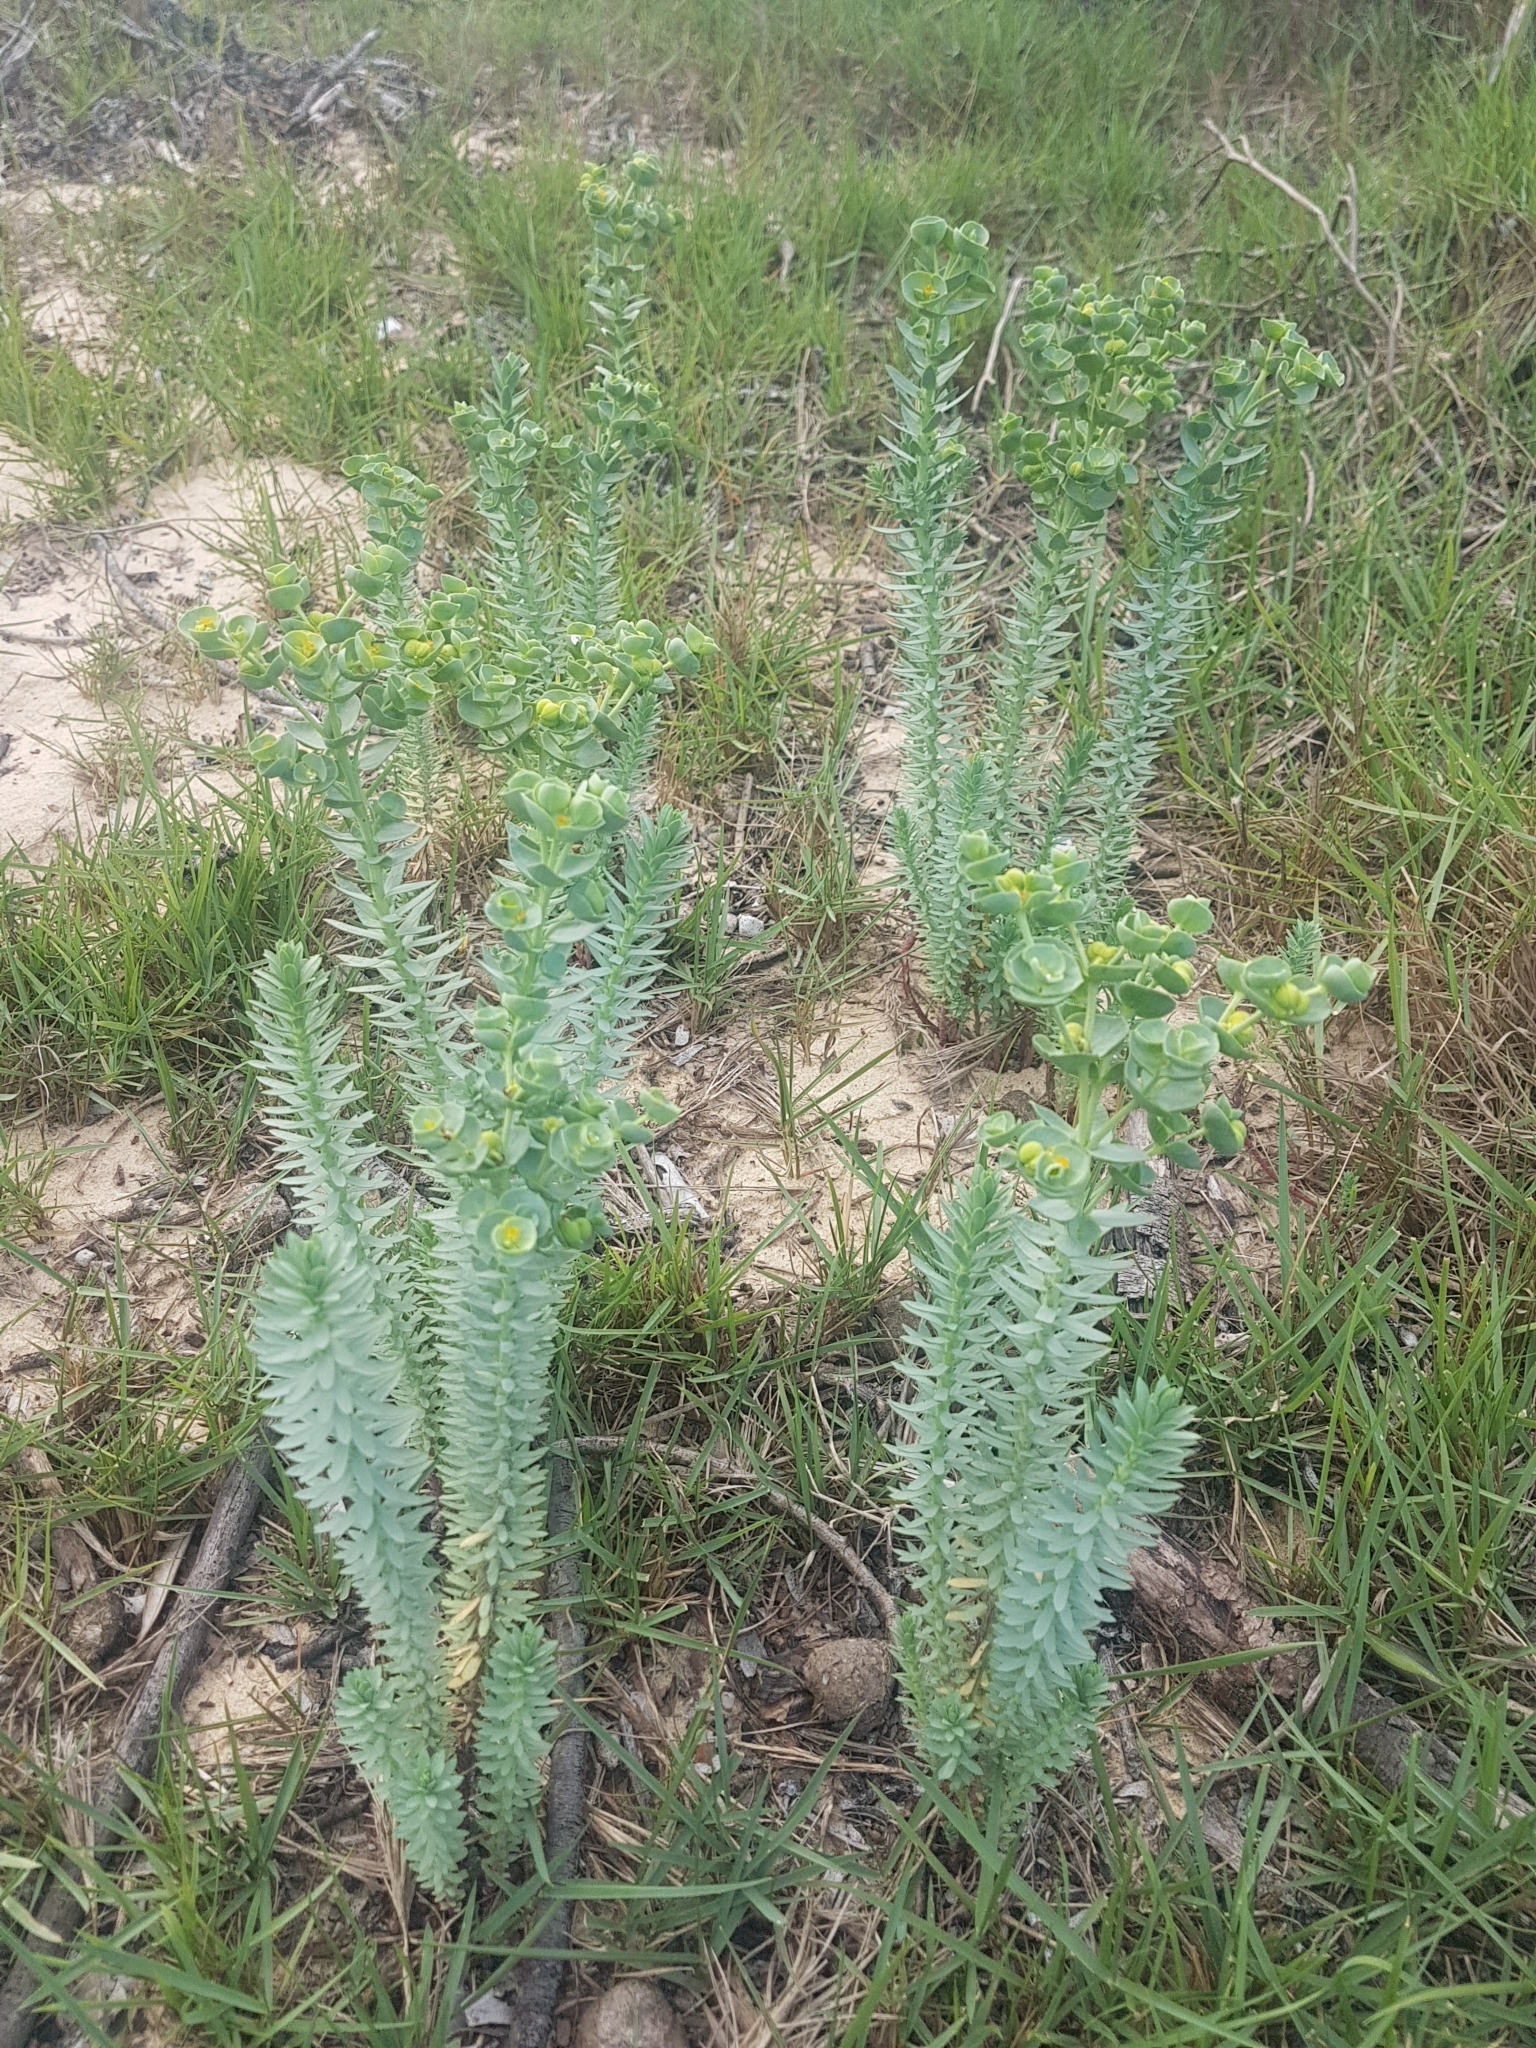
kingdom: Plantae
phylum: Tracheophyta
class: Magnoliopsida
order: Malpighiales
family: Euphorbiaceae
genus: Euphorbia
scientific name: Euphorbia paralias
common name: Sea spurge
